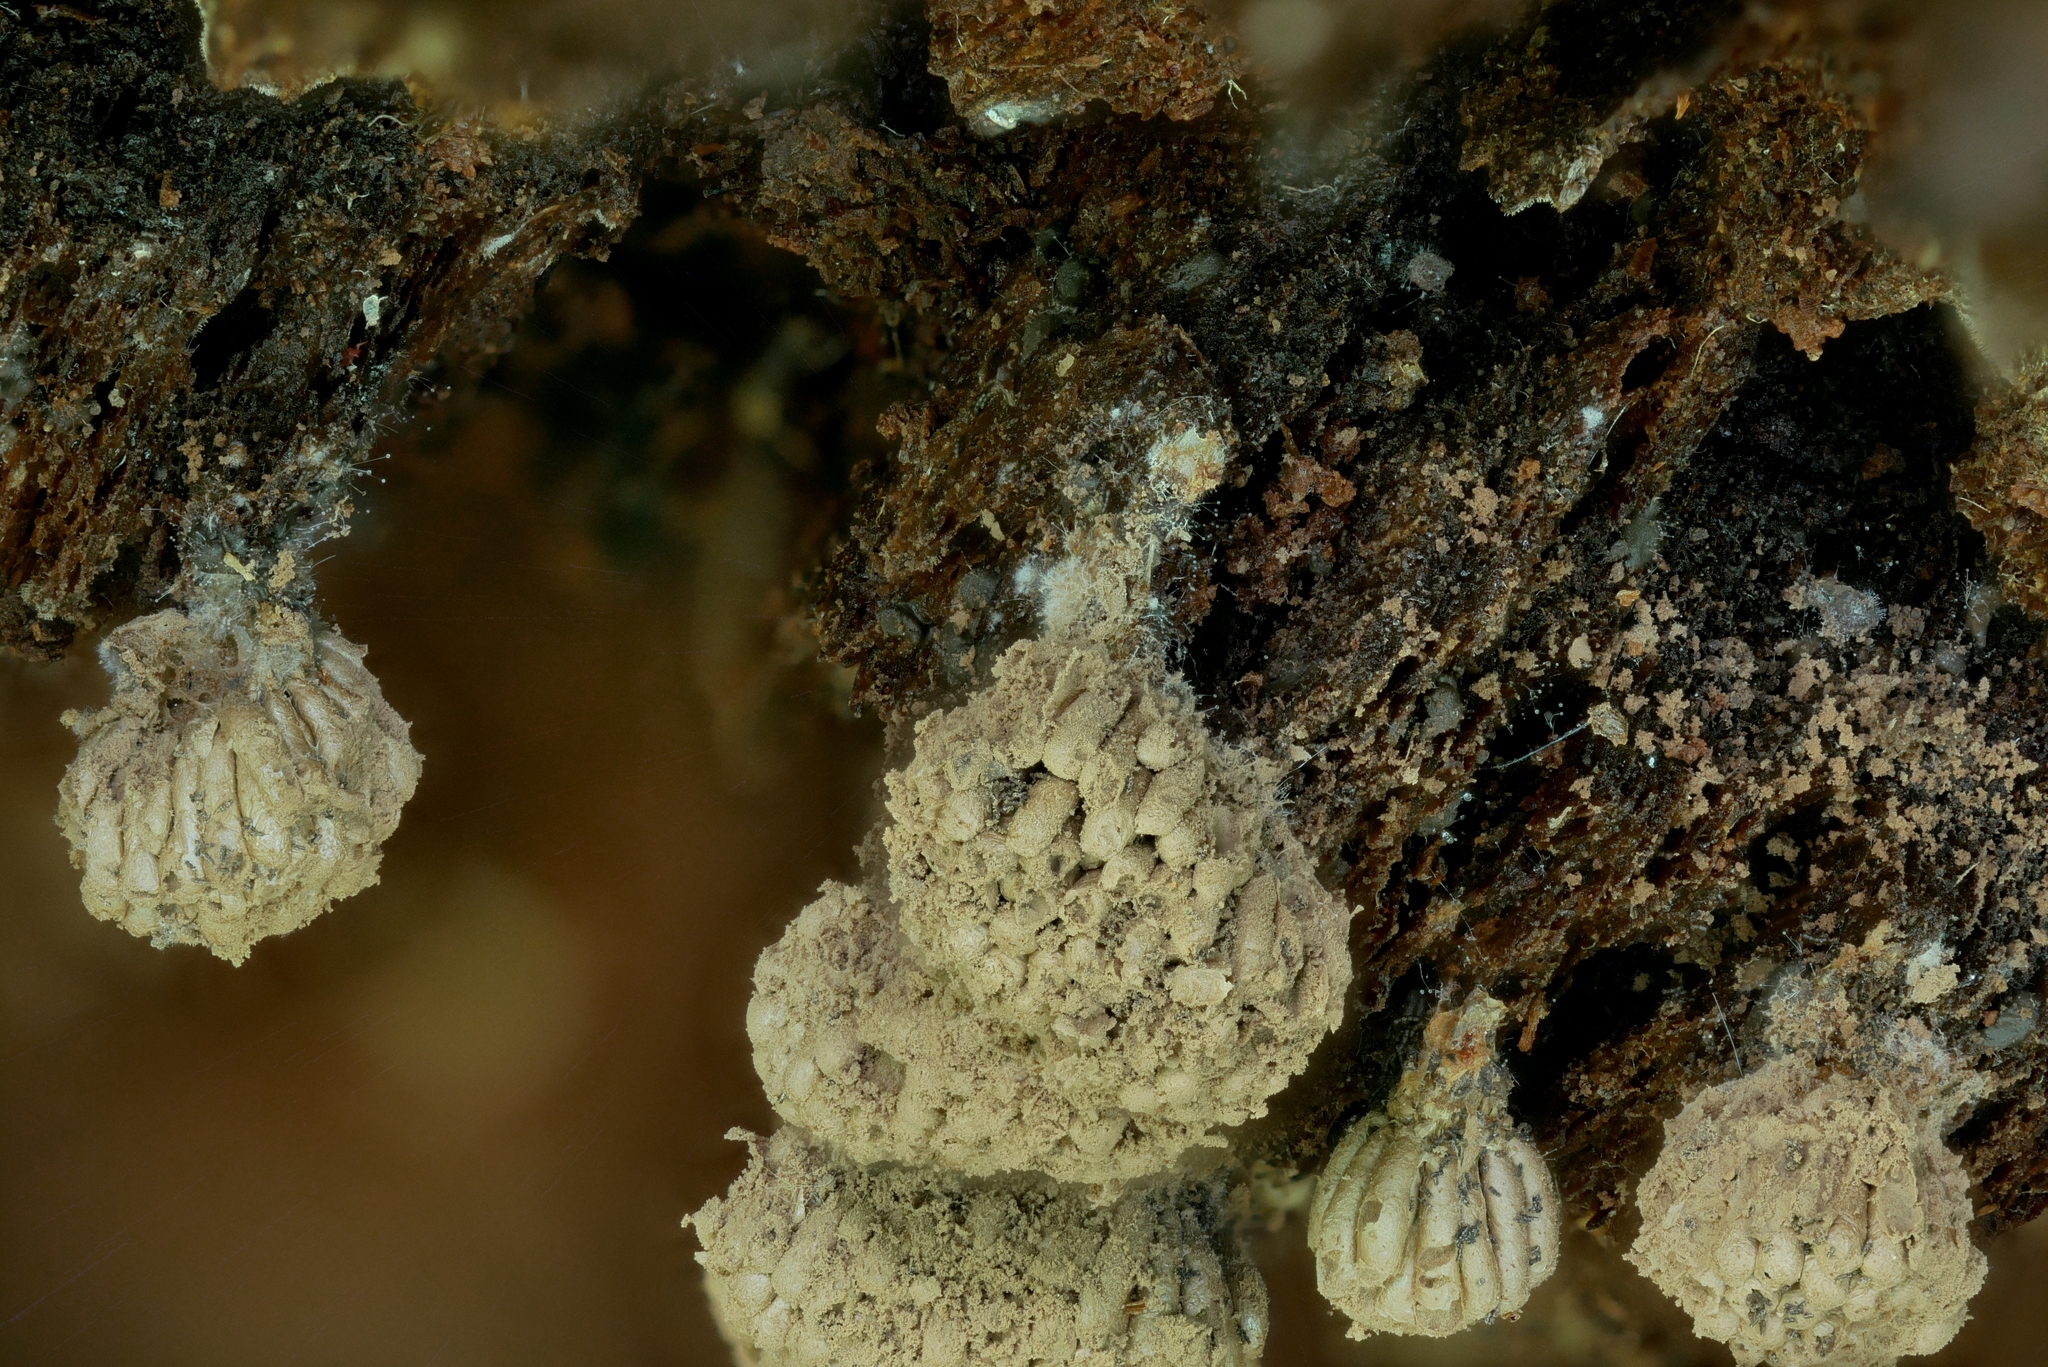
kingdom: Protozoa
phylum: Mycetozoa
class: Myxomycetes
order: Cribrariales
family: Tubiferaceae
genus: Tubifera
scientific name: Tubifera corymbosa
